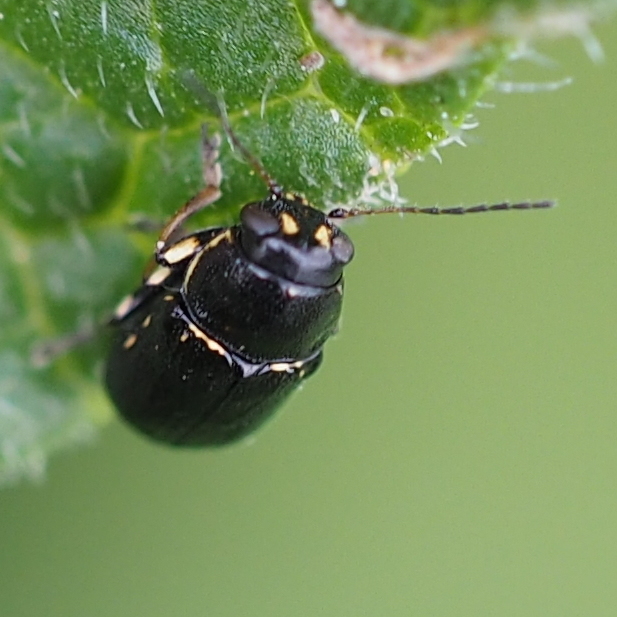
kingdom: Animalia
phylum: Arthropoda
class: Insecta
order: Coleoptera
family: Chrysomelidae
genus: Pachybrachis
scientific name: Pachybrachis fimbriolatus
